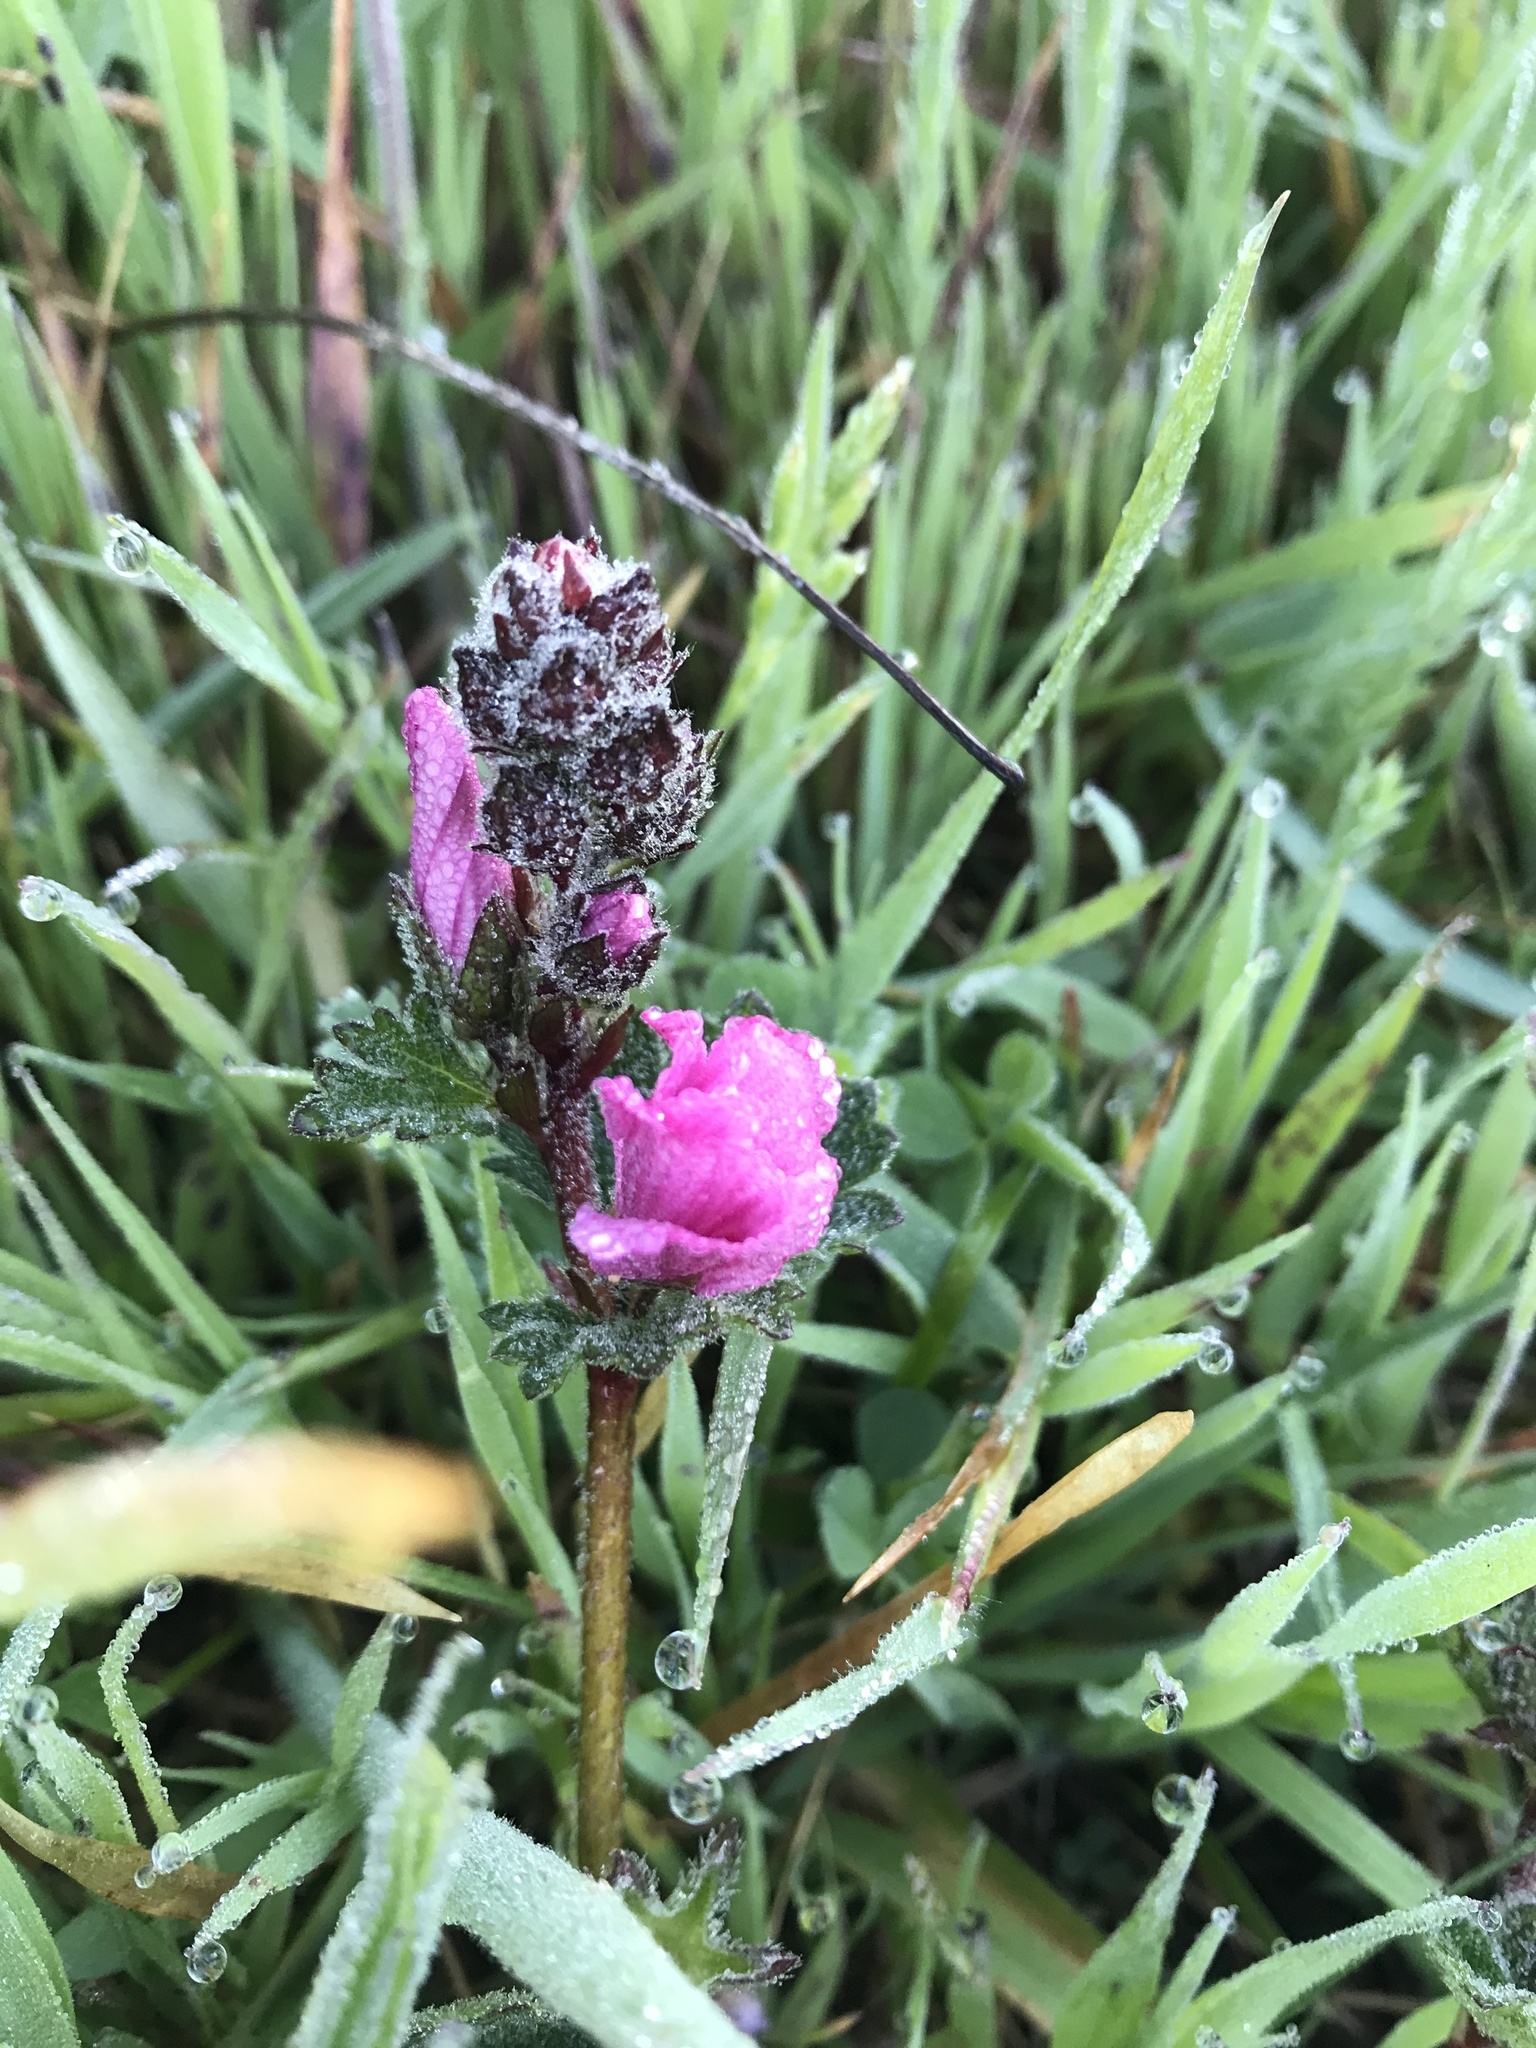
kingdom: Plantae
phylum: Tracheophyta
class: Magnoliopsida
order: Malvales
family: Malvaceae
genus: Sidalcea
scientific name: Sidalcea malviflora
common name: Greek mallow
